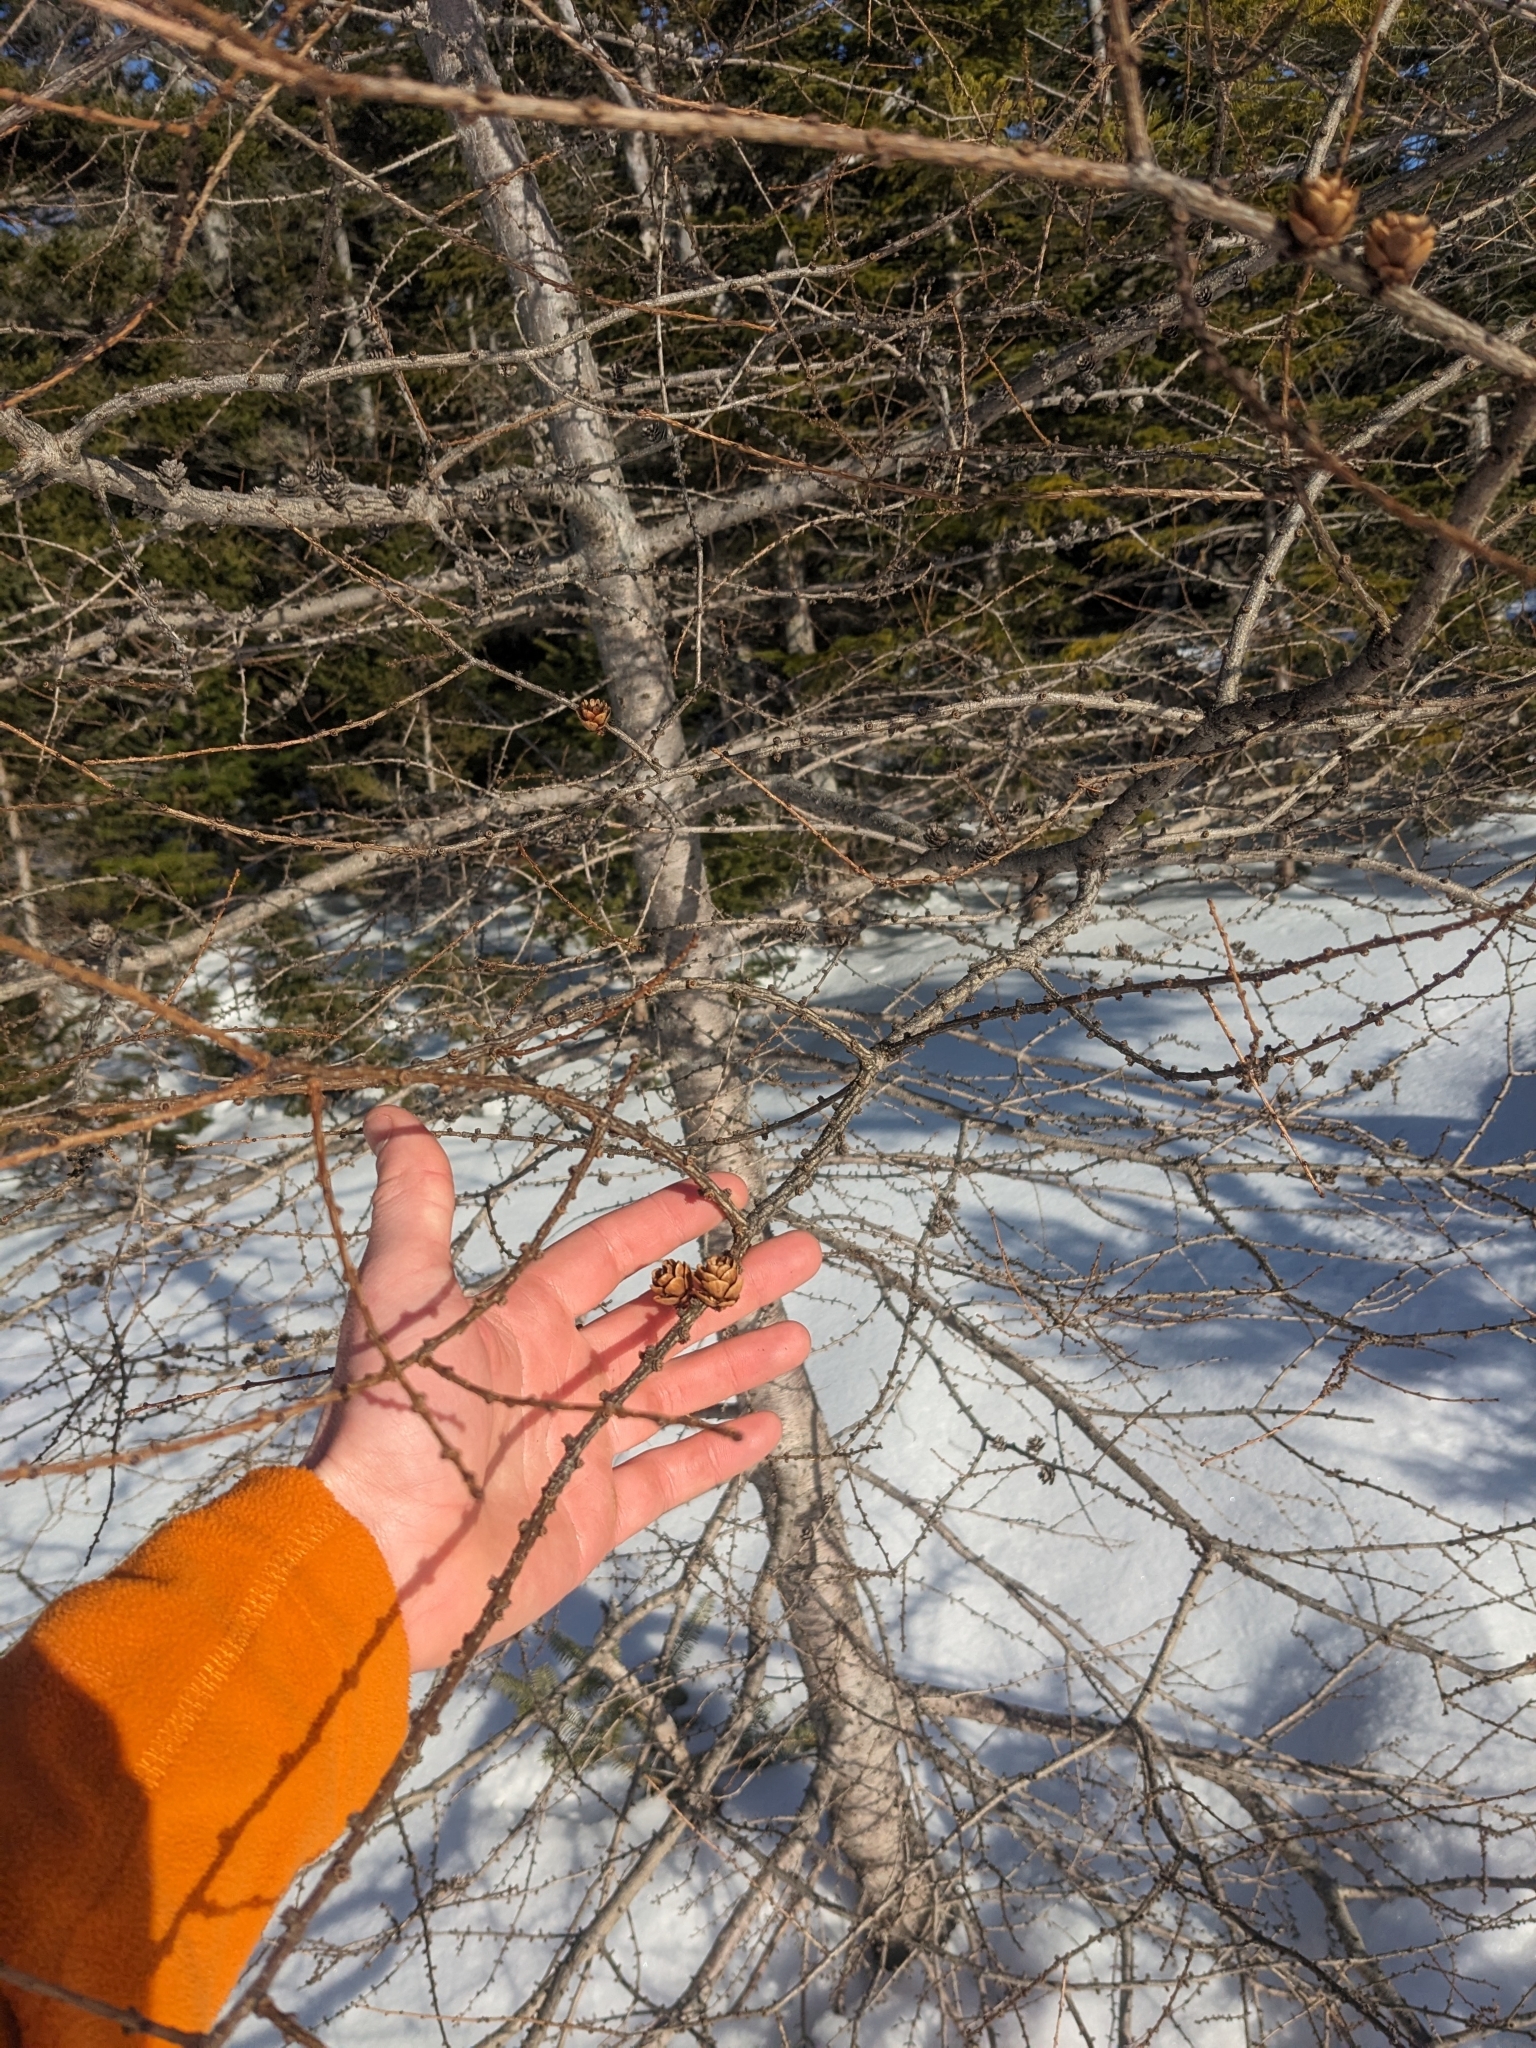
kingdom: Plantae
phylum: Tracheophyta
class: Pinopsida
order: Pinales
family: Pinaceae
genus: Larix
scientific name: Larix laricina
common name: American larch
